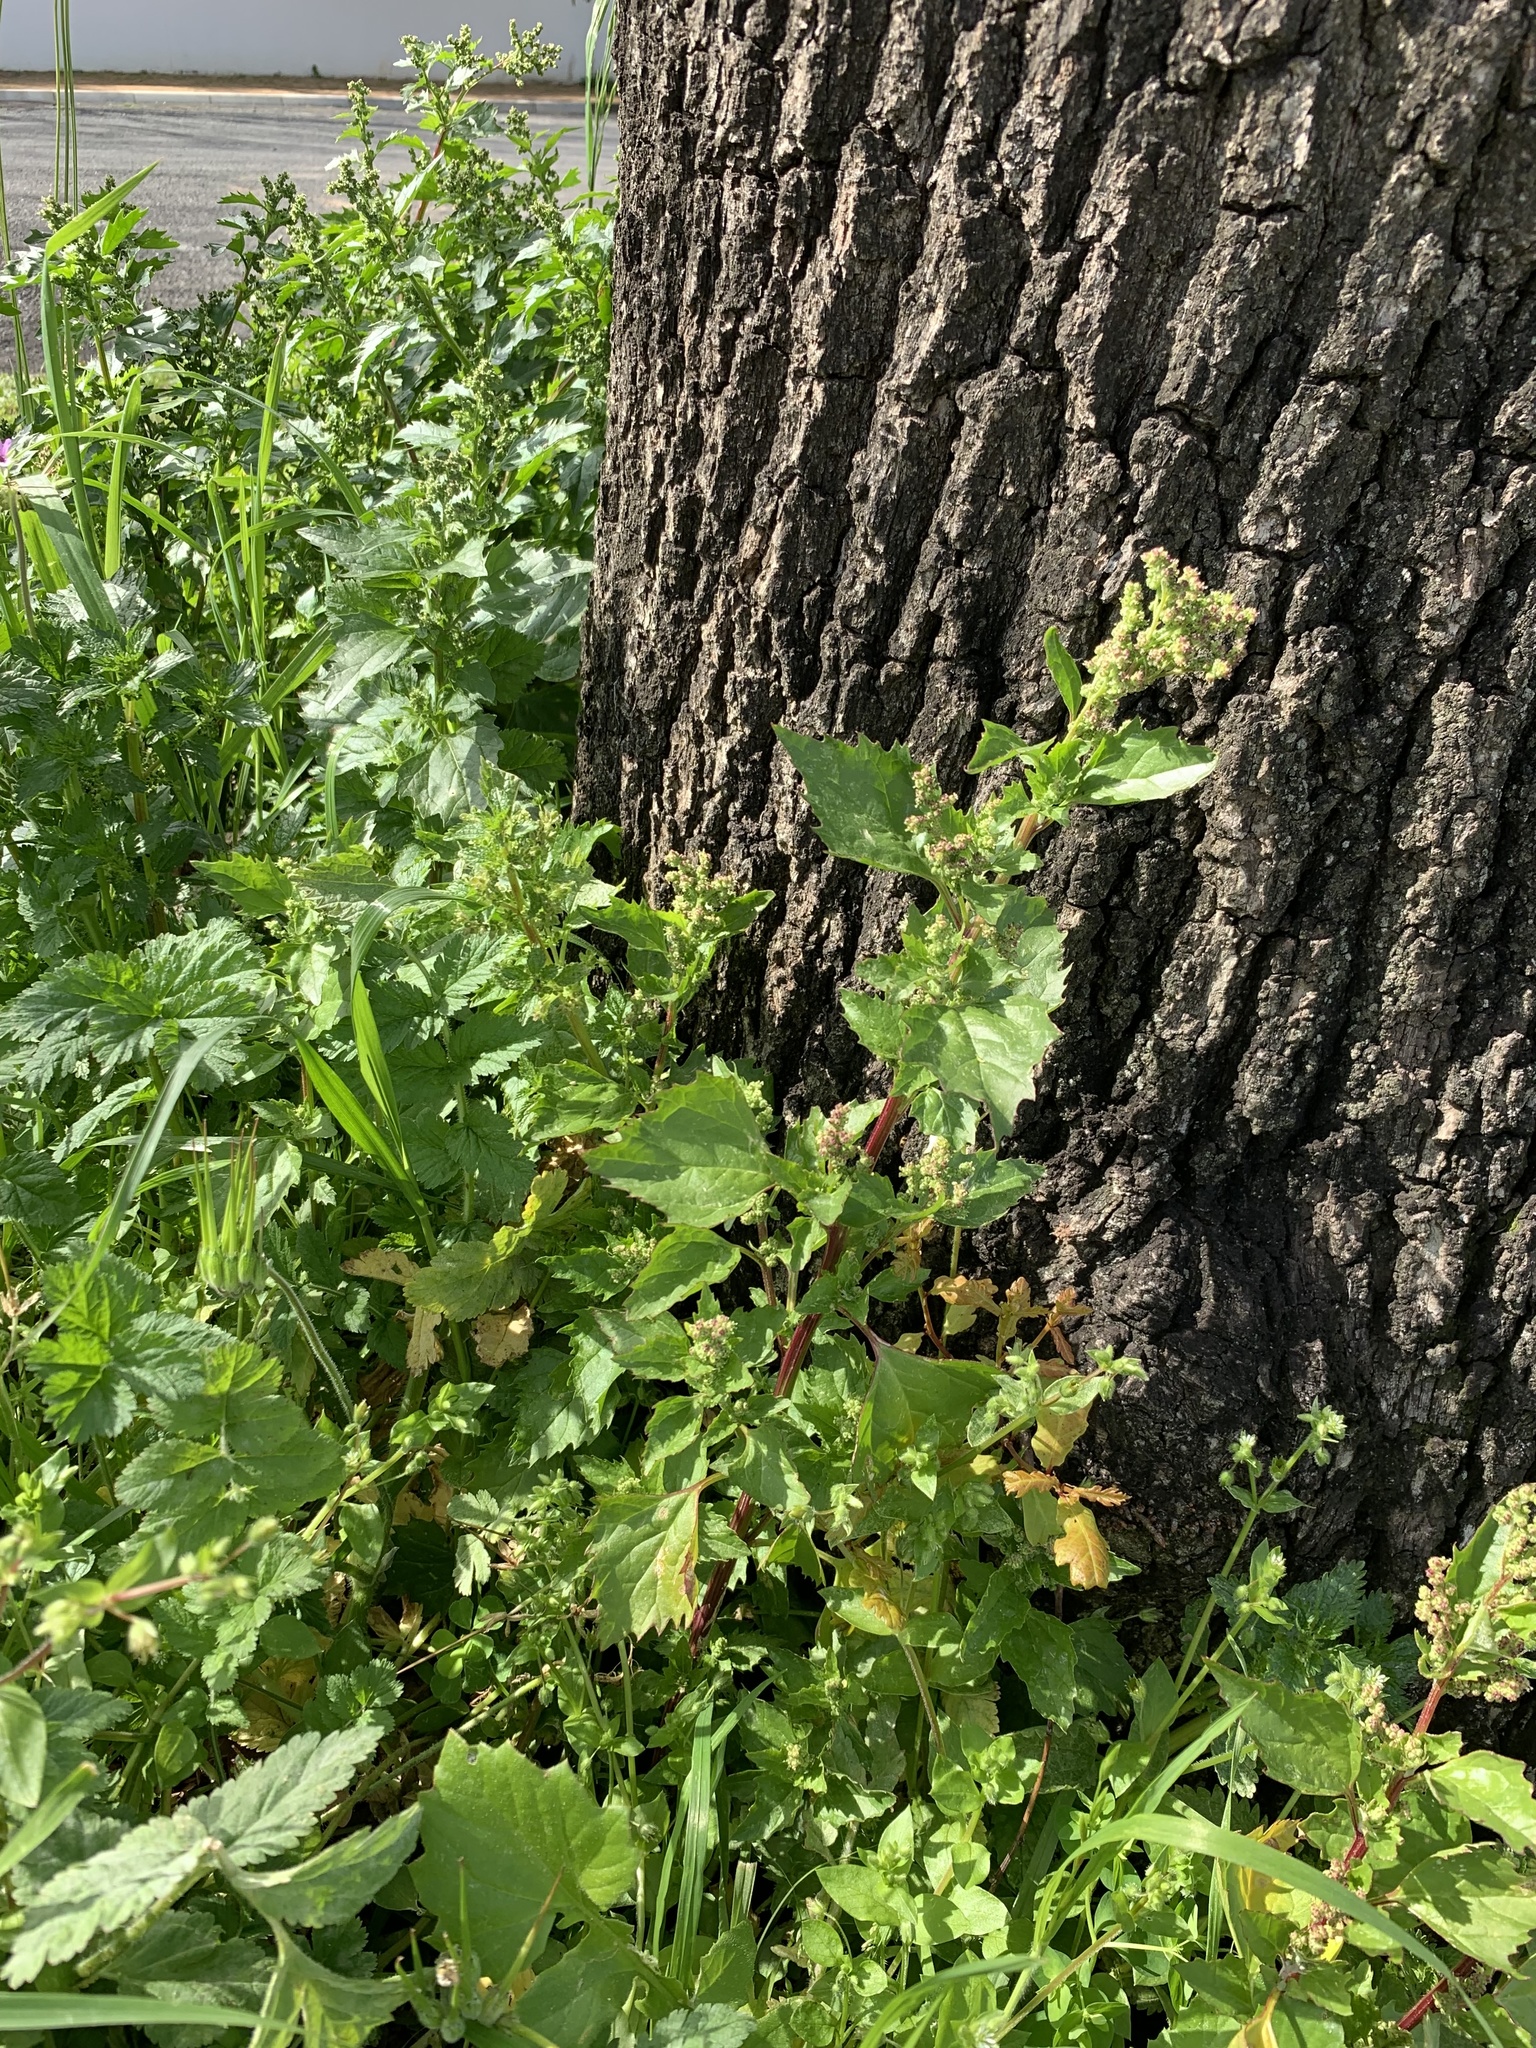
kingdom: Plantae
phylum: Tracheophyta
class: Magnoliopsida
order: Caryophyllales
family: Amaranthaceae
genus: Chenopodiastrum
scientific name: Chenopodiastrum murale
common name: Sowbane
